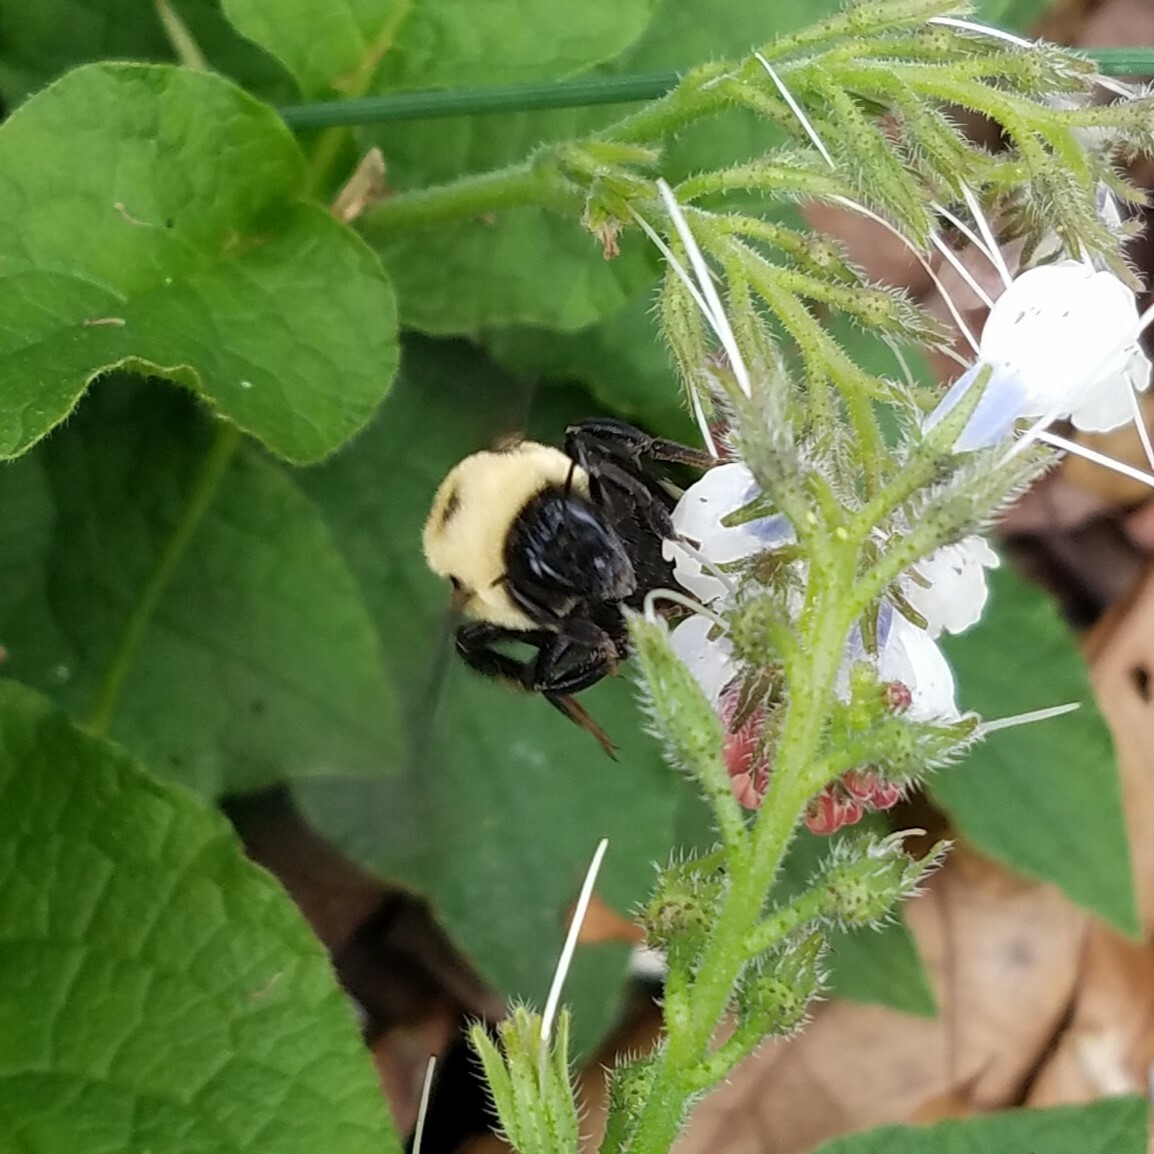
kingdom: Animalia
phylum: Arthropoda
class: Insecta
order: Hymenoptera
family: Apidae
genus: Bombus
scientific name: Bombus griseocollis
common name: Brown-belted bumble bee
